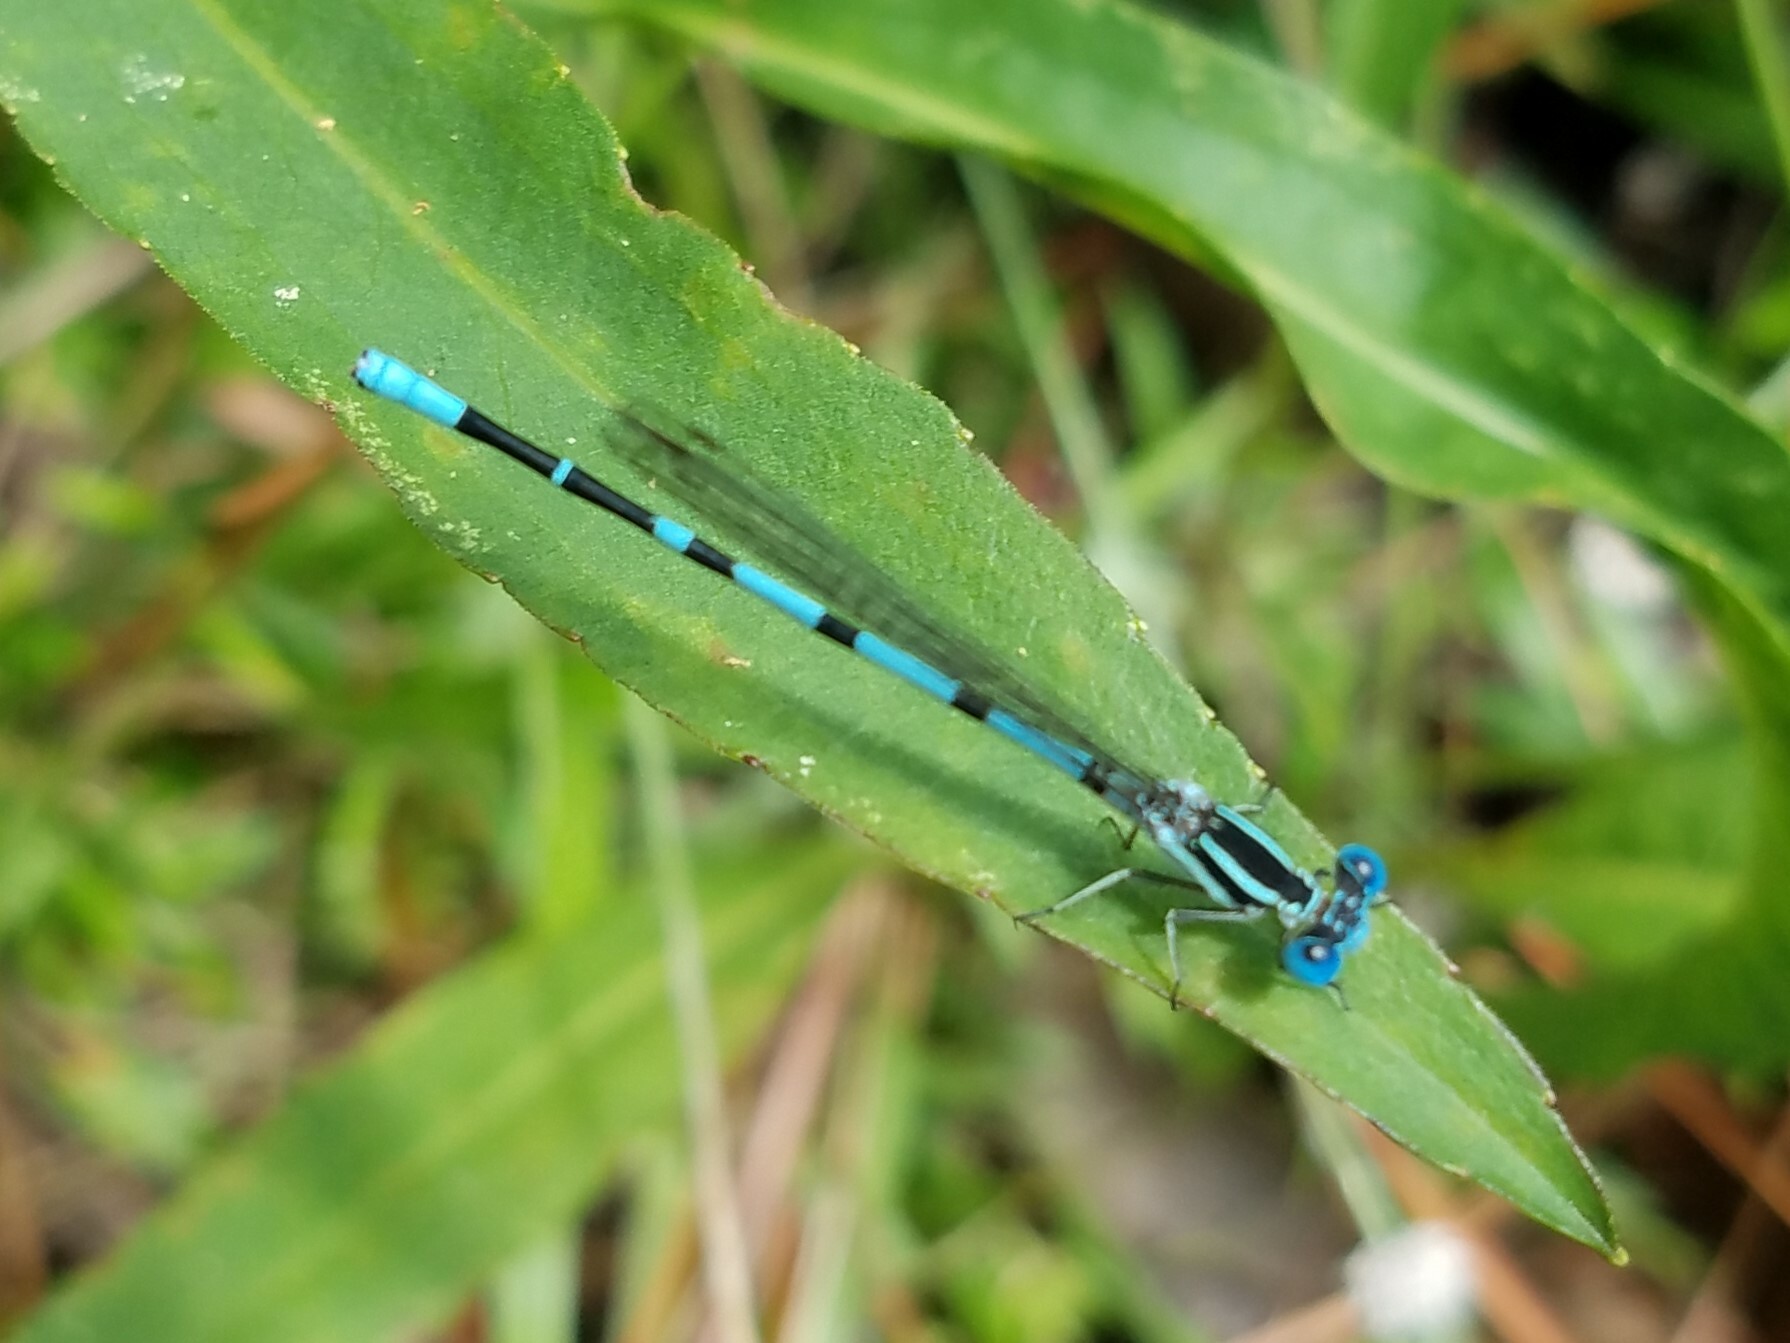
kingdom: Animalia
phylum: Arthropoda
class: Insecta
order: Odonata
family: Coenagrionidae
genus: Argia
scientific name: Argia bipunctulata
